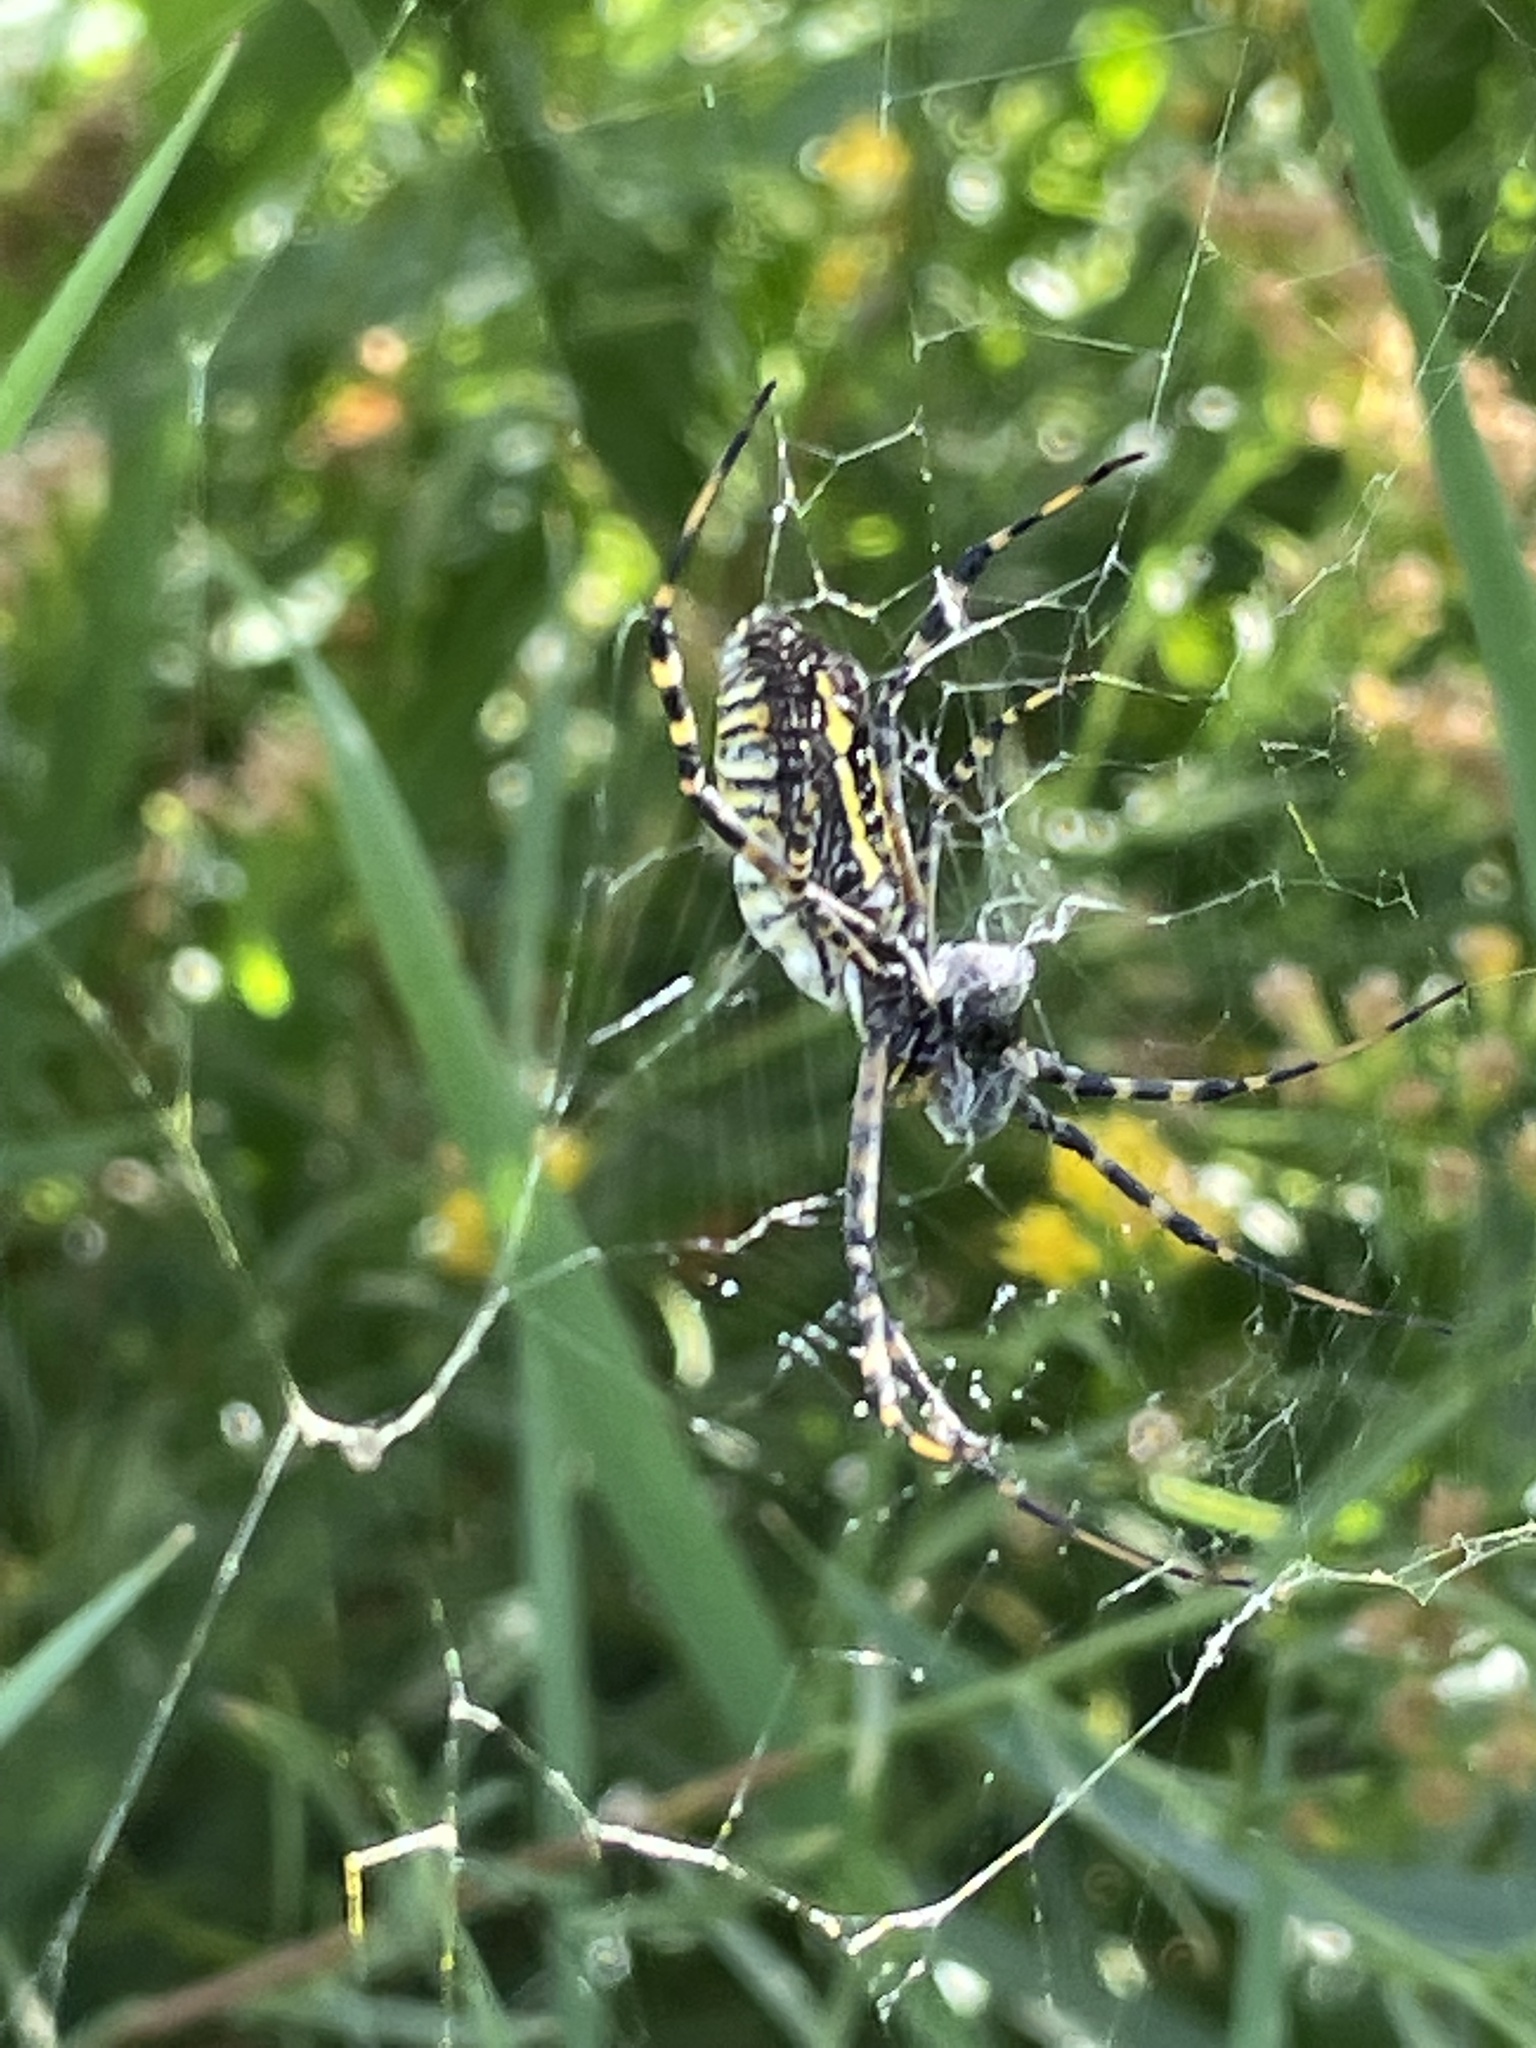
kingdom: Animalia
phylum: Arthropoda
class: Arachnida
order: Araneae
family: Araneidae
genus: Argiope
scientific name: Argiope trifasciata
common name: Banded garden spider
